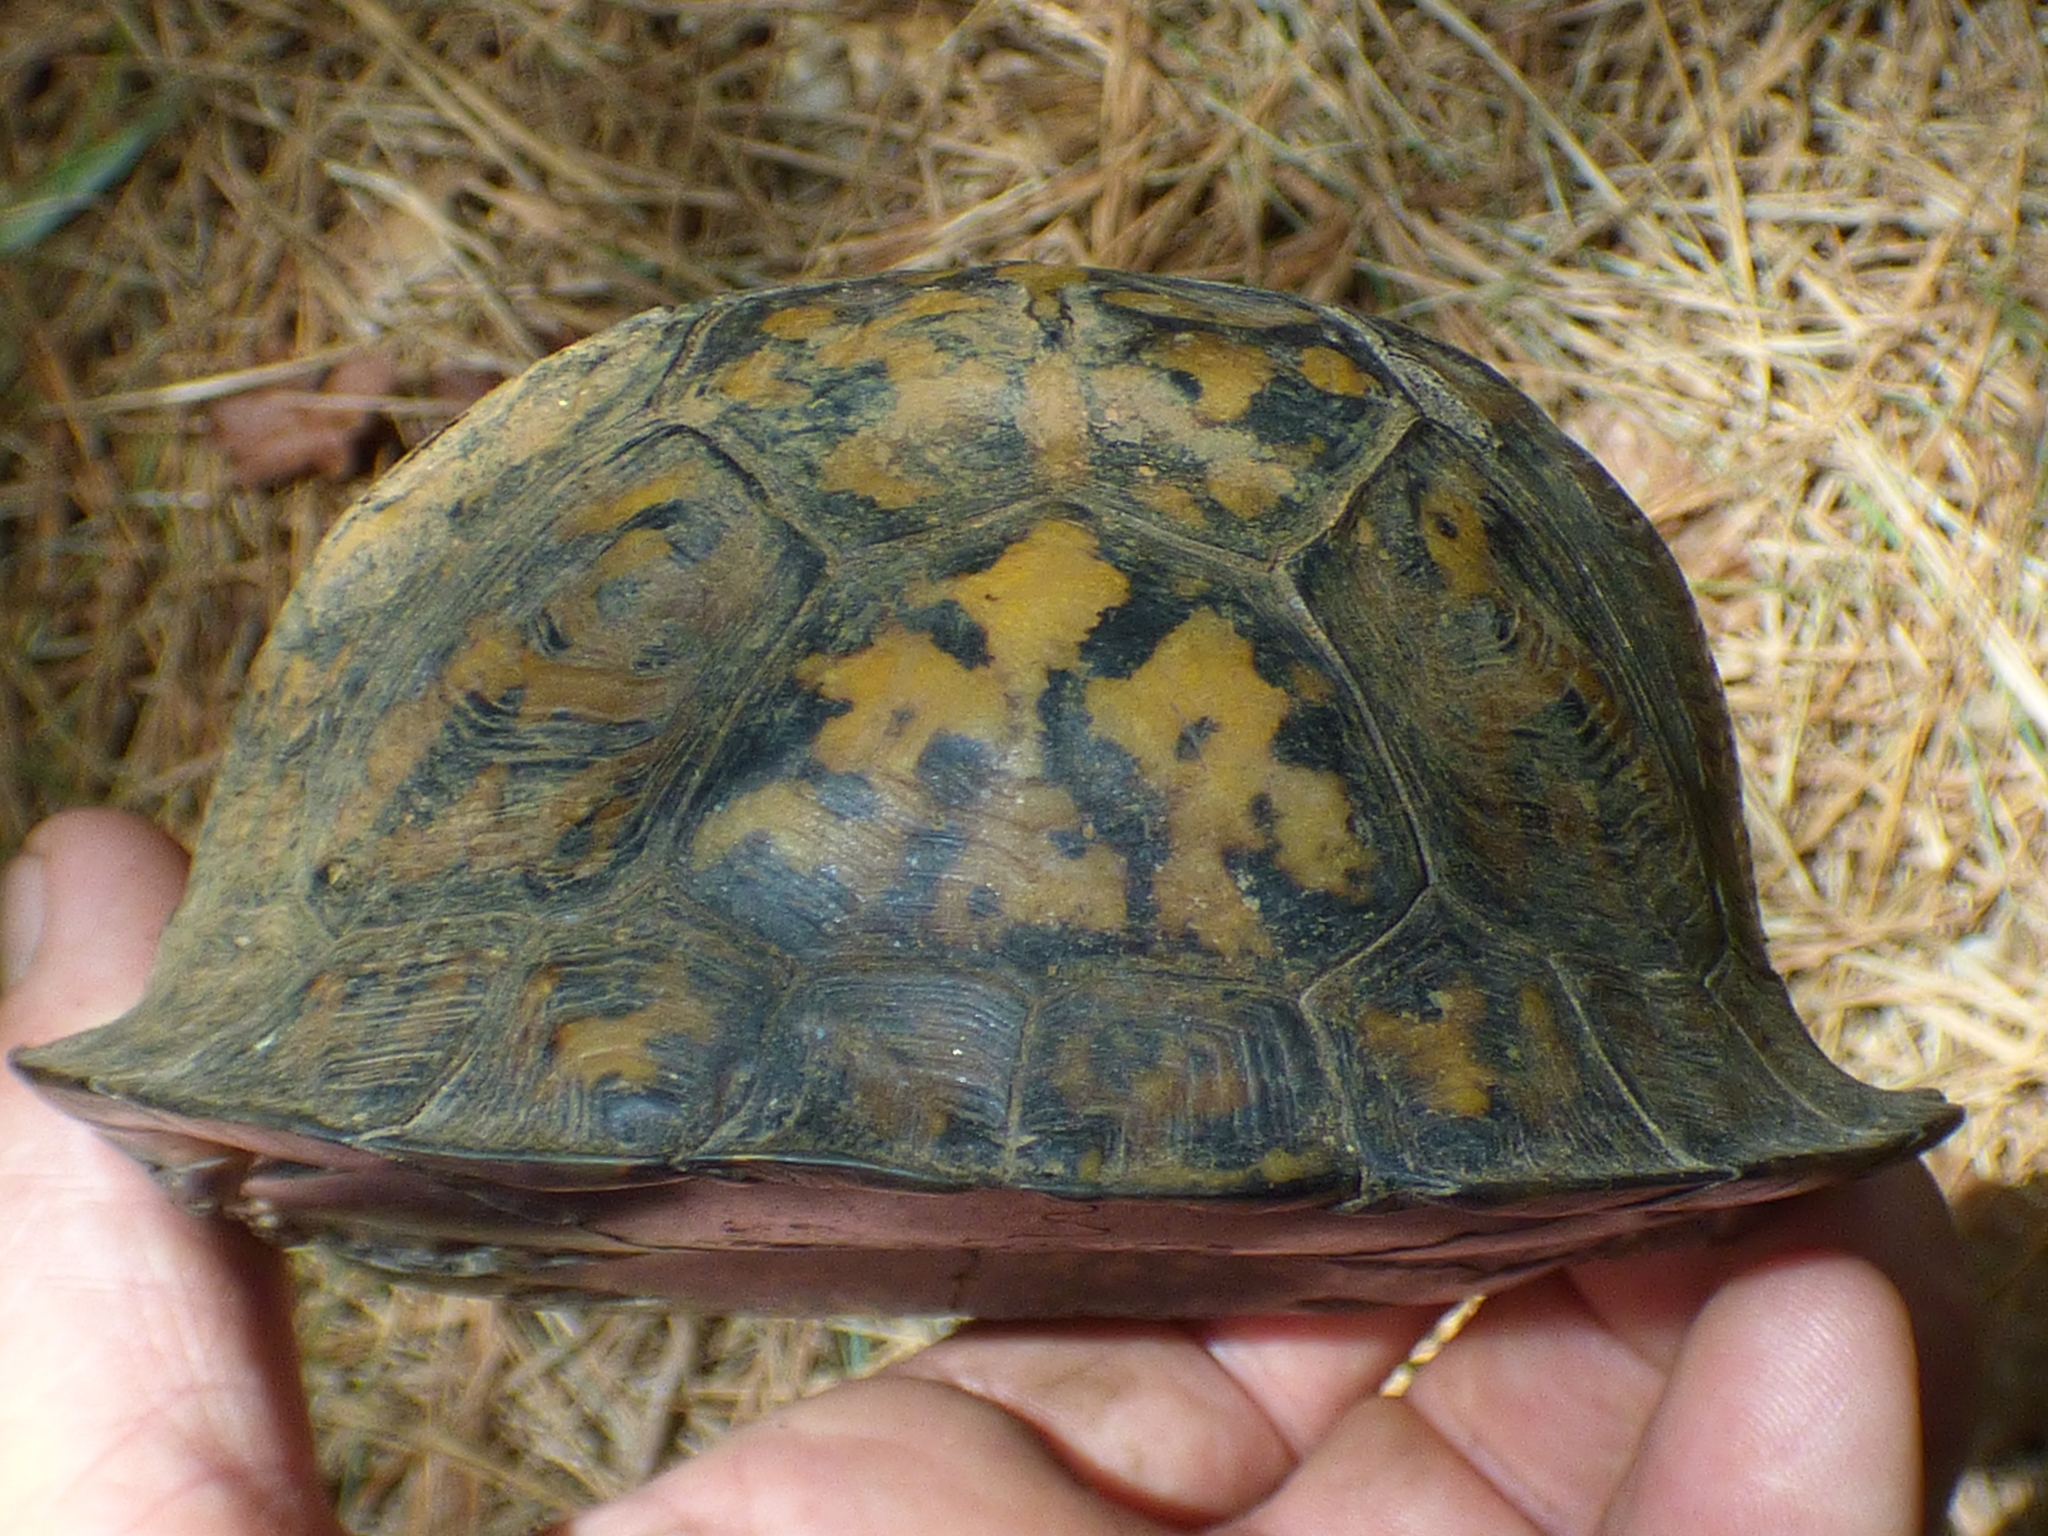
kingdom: Animalia
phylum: Chordata
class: Testudines
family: Emydidae
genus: Terrapene
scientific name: Terrapene carolina
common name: Common box turtle
